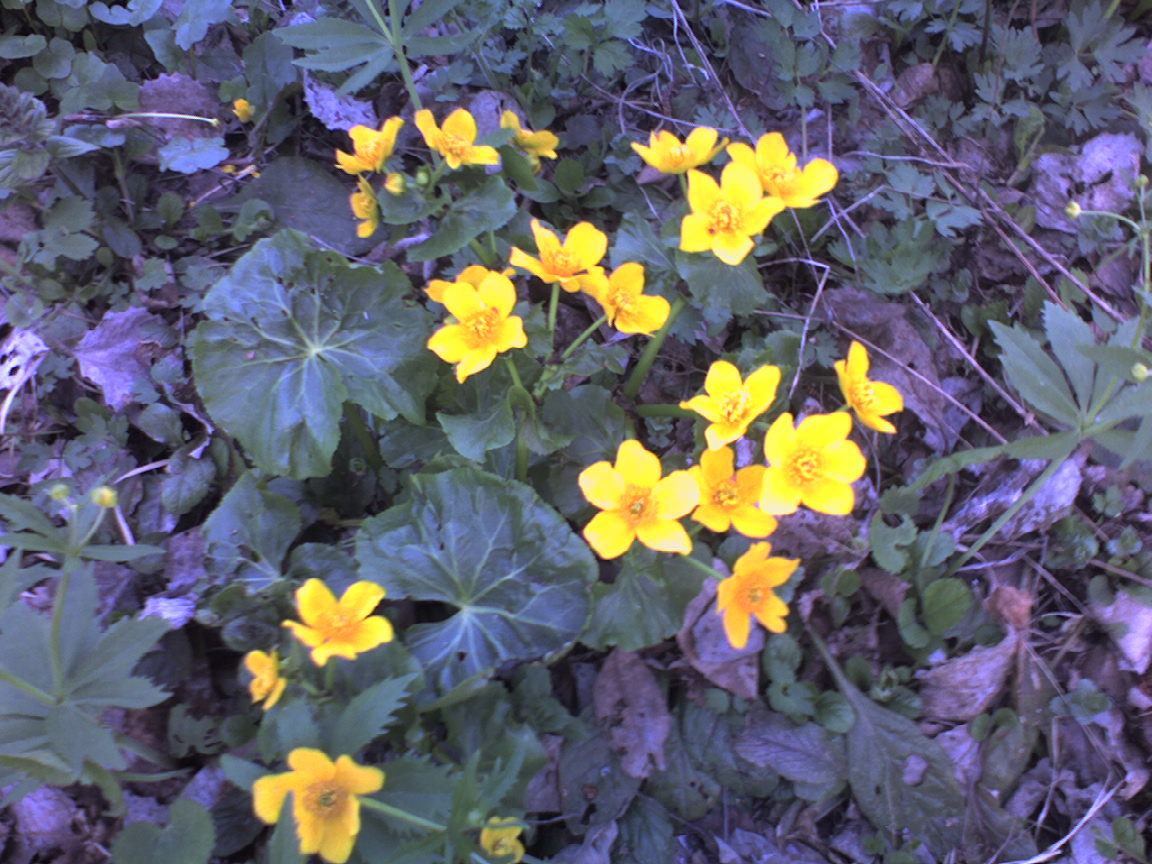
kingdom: Plantae
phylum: Tracheophyta
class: Magnoliopsida
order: Ranunculales
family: Ranunculaceae
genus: Caltha
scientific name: Caltha palustris
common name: Marsh marigold
